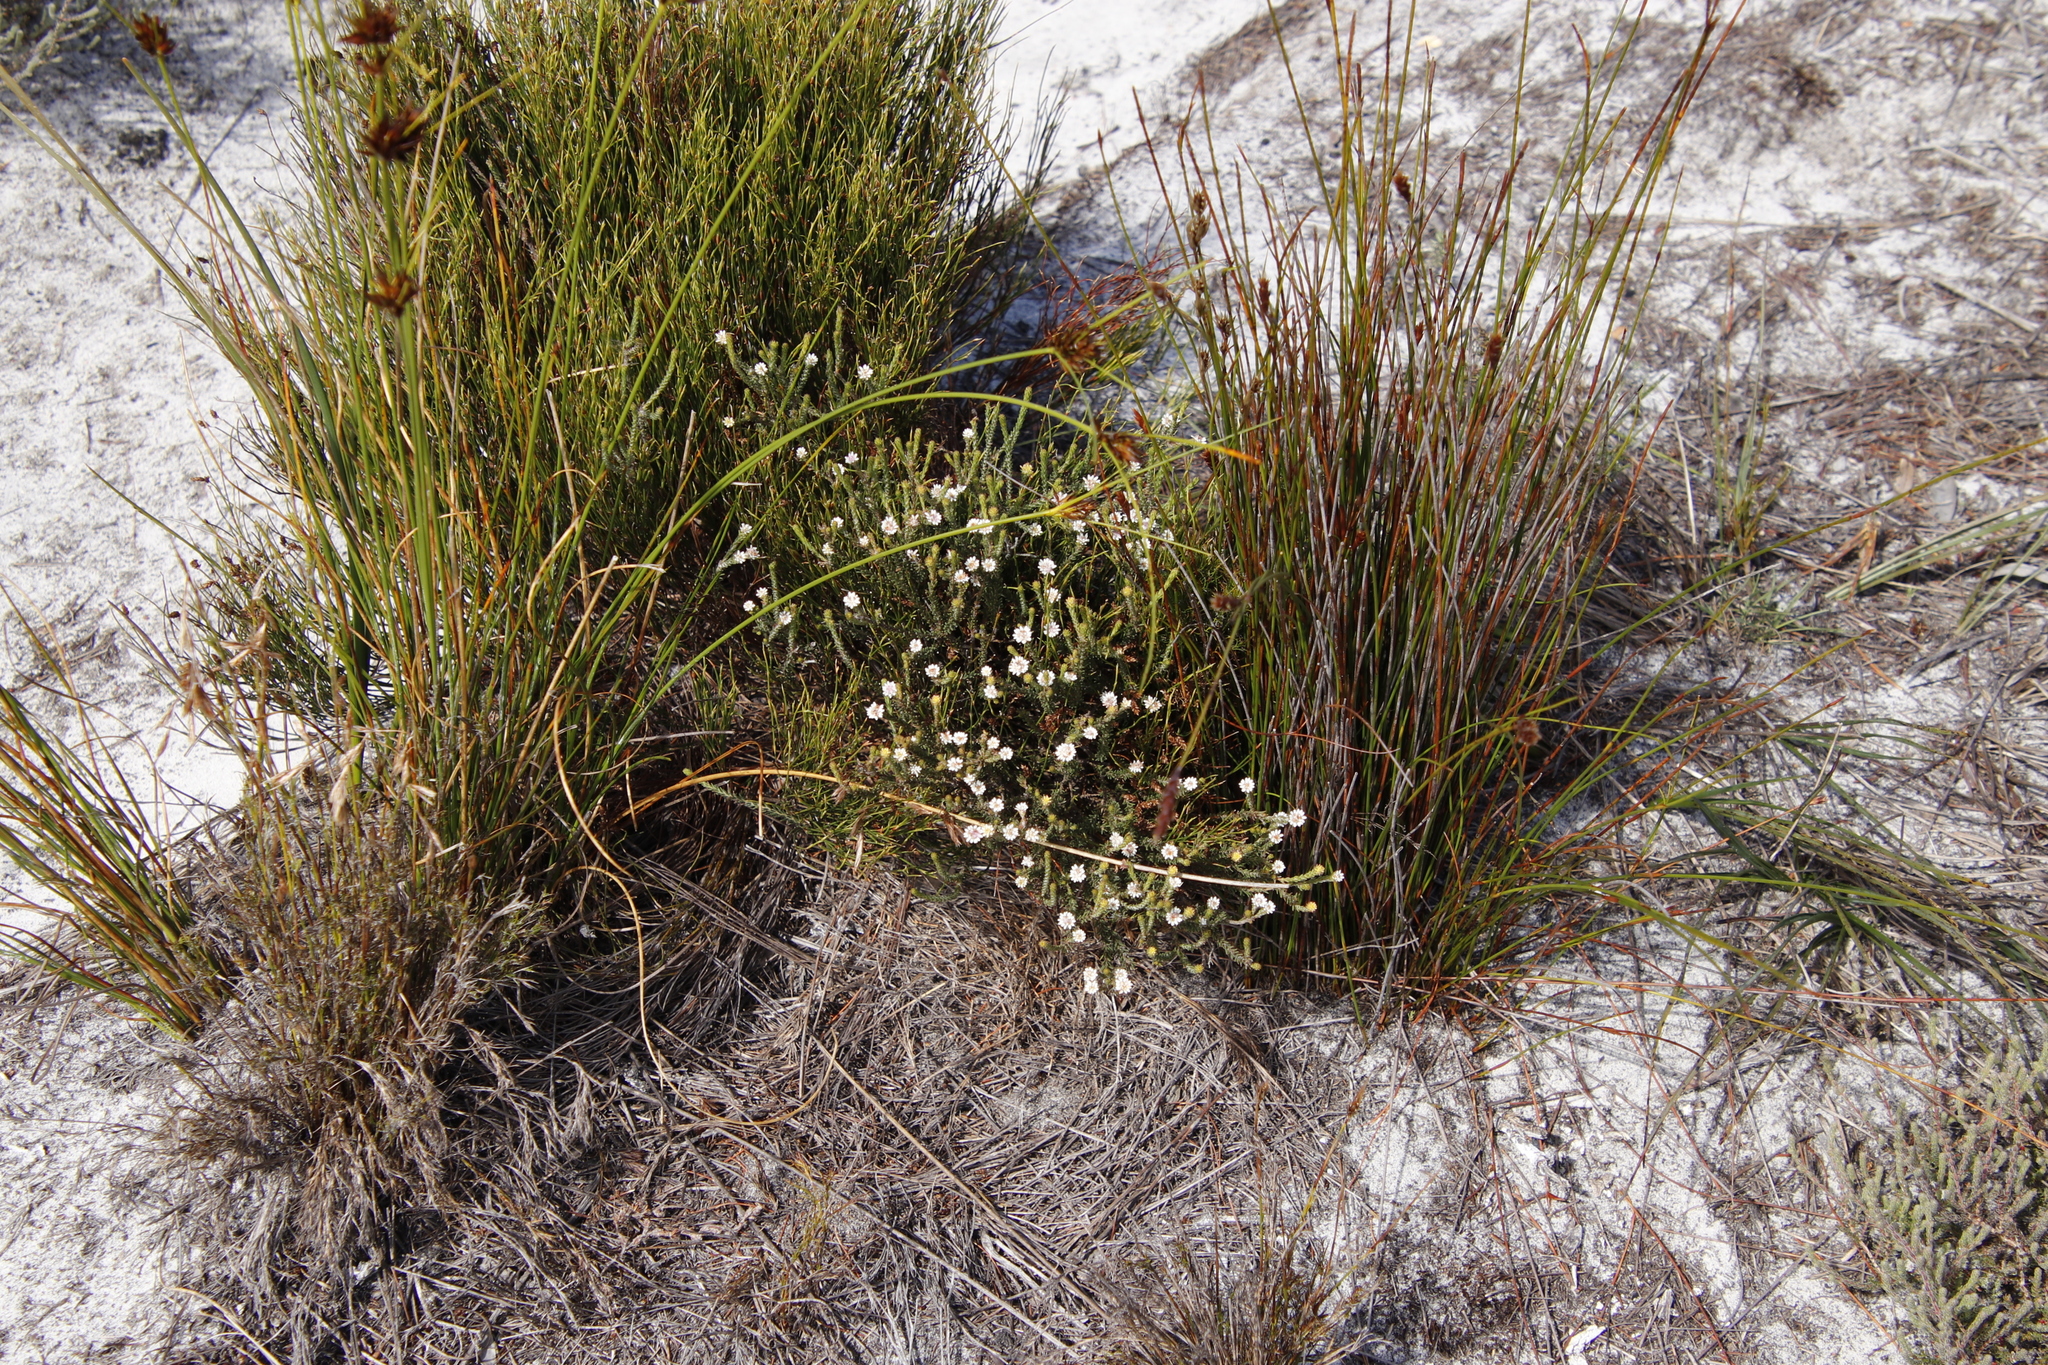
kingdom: Plantae
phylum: Tracheophyta
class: Magnoliopsida
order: Bruniales
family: Bruniaceae
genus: Staavia
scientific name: Staavia radiata
